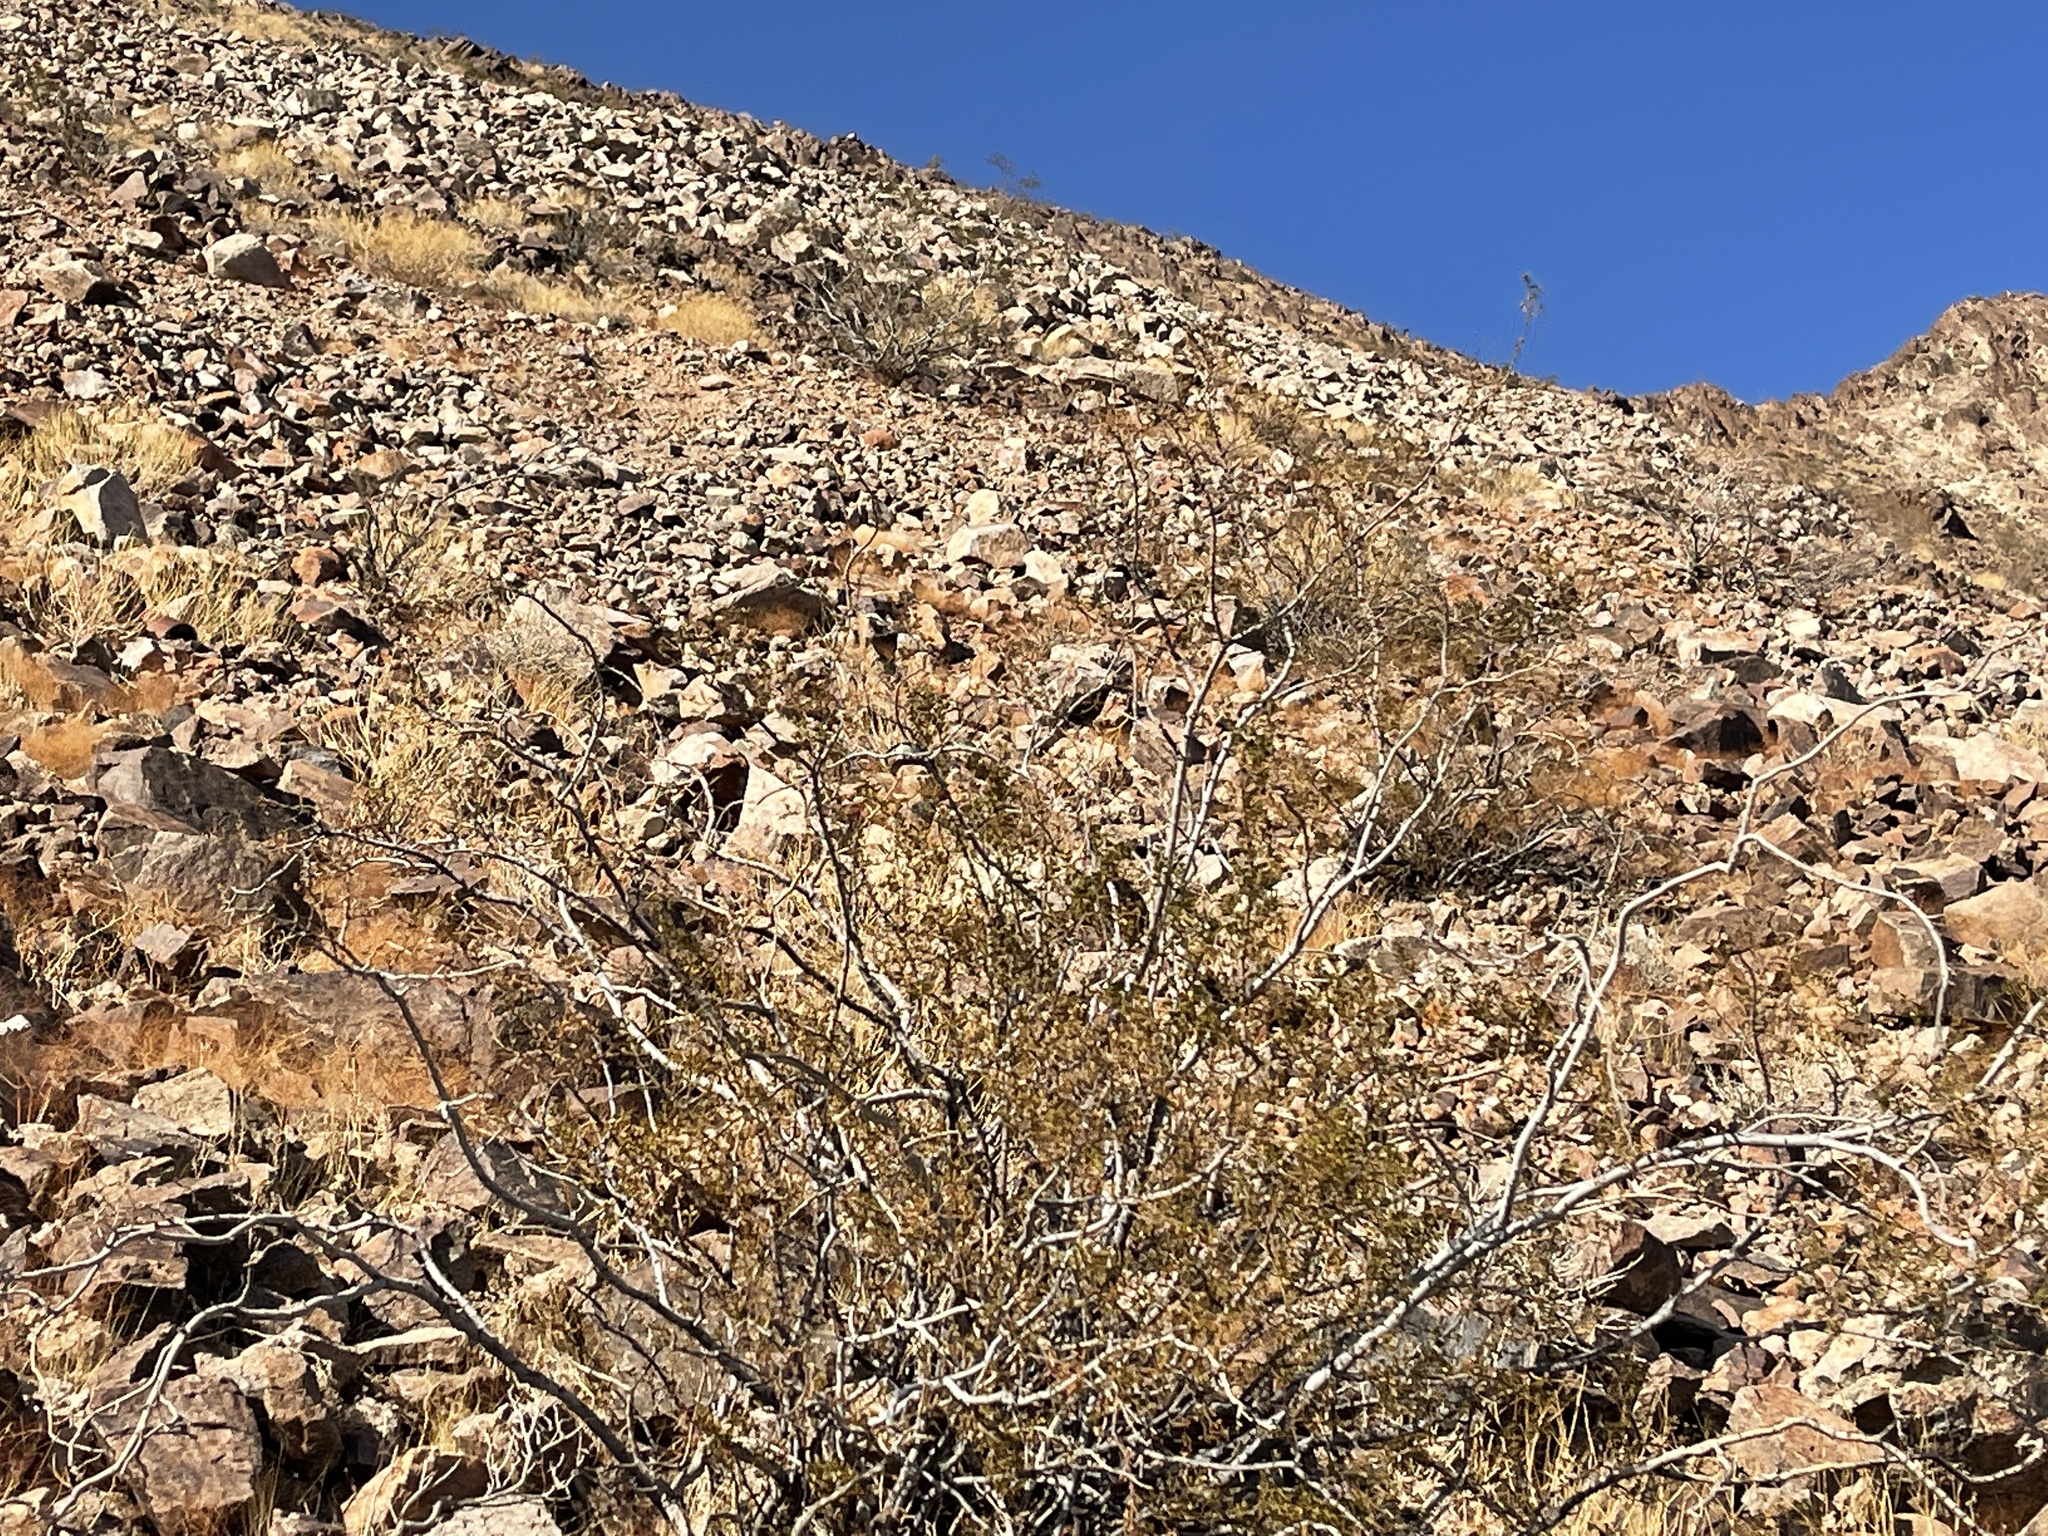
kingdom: Plantae
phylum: Tracheophyta
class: Magnoliopsida
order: Zygophyllales
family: Zygophyllaceae
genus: Larrea
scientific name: Larrea tridentata
